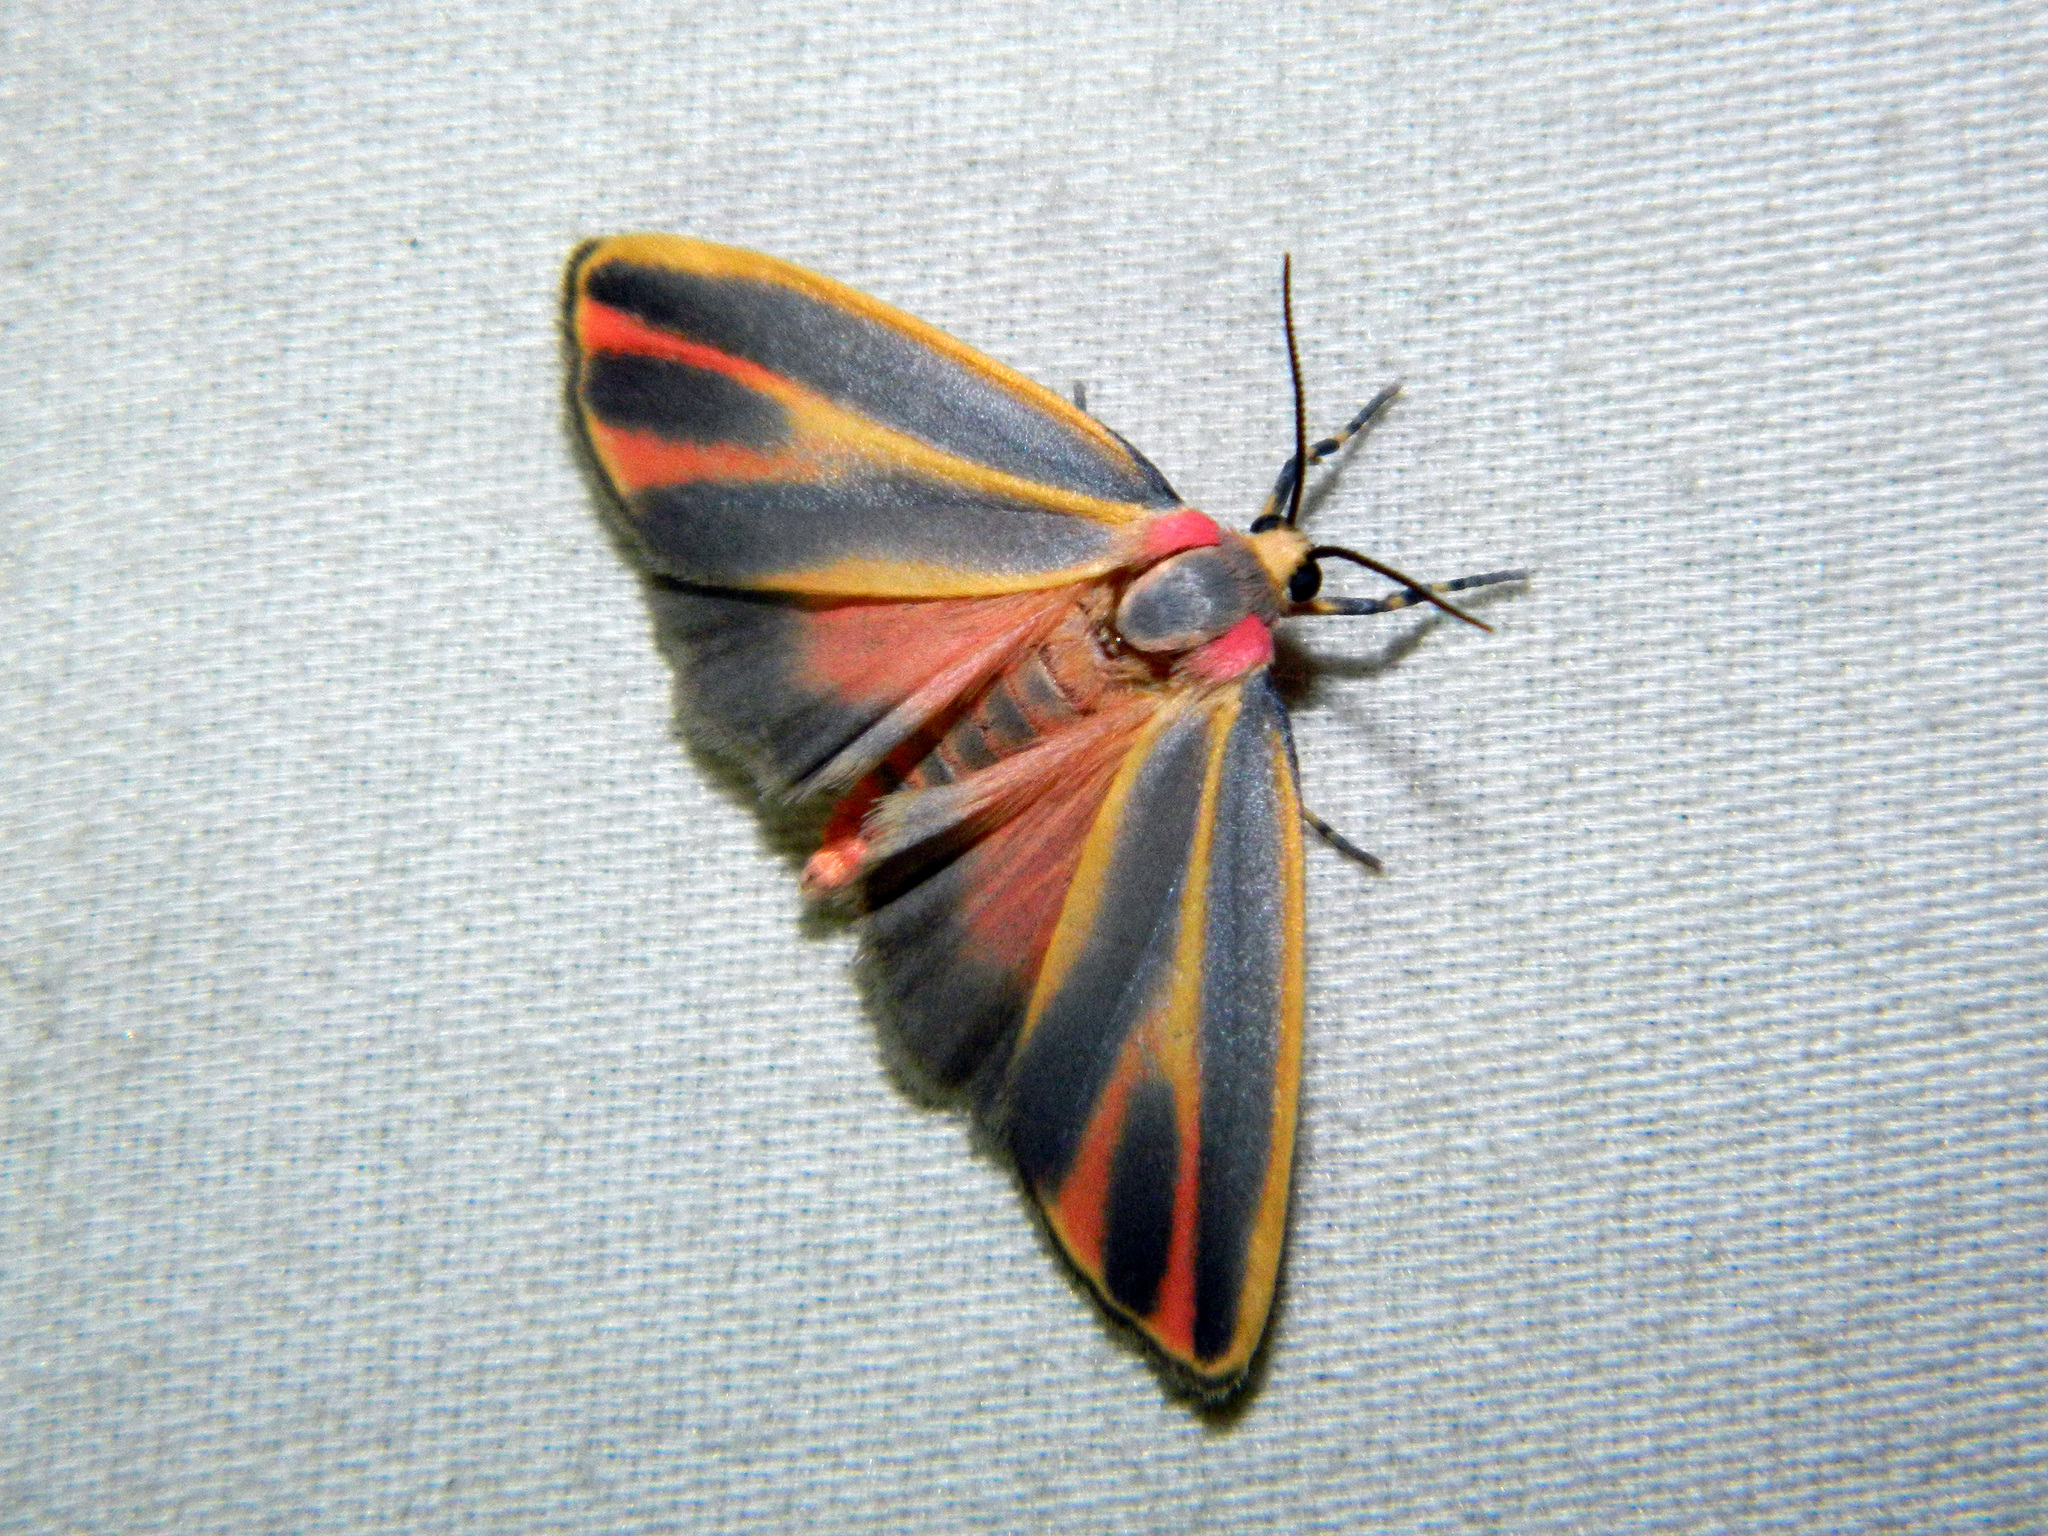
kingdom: Animalia
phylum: Arthropoda
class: Insecta
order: Lepidoptera
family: Erebidae
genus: Hypoprepia
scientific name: Hypoprepia fucosa
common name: Painted lichen moth
